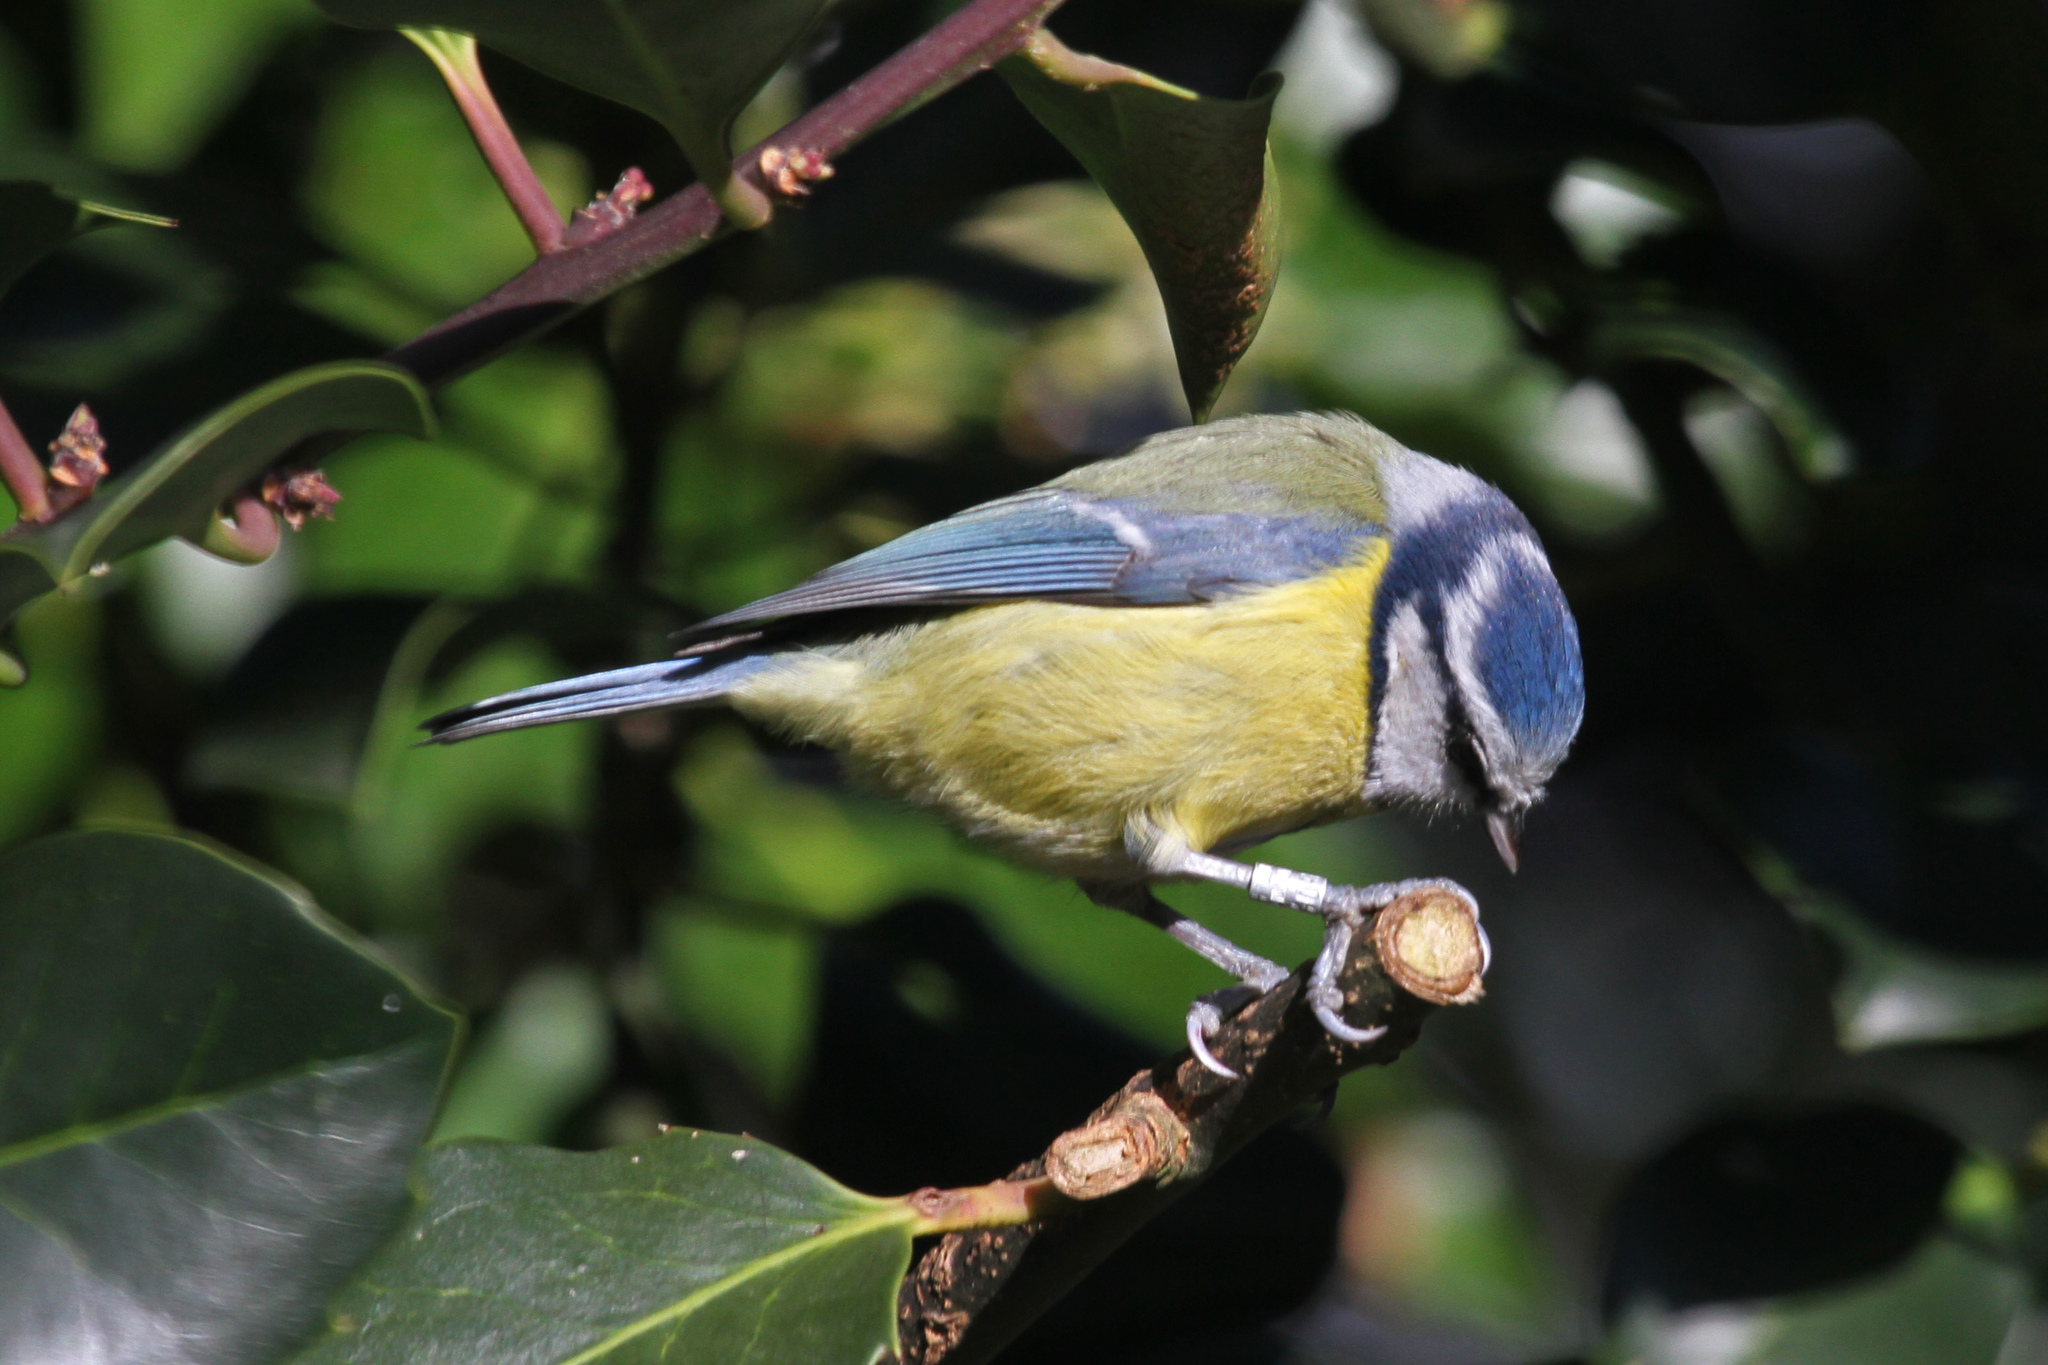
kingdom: Animalia
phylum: Chordata
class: Aves
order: Passeriformes
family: Paridae
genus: Cyanistes
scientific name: Cyanistes caeruleus
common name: Eurasian blue tit
